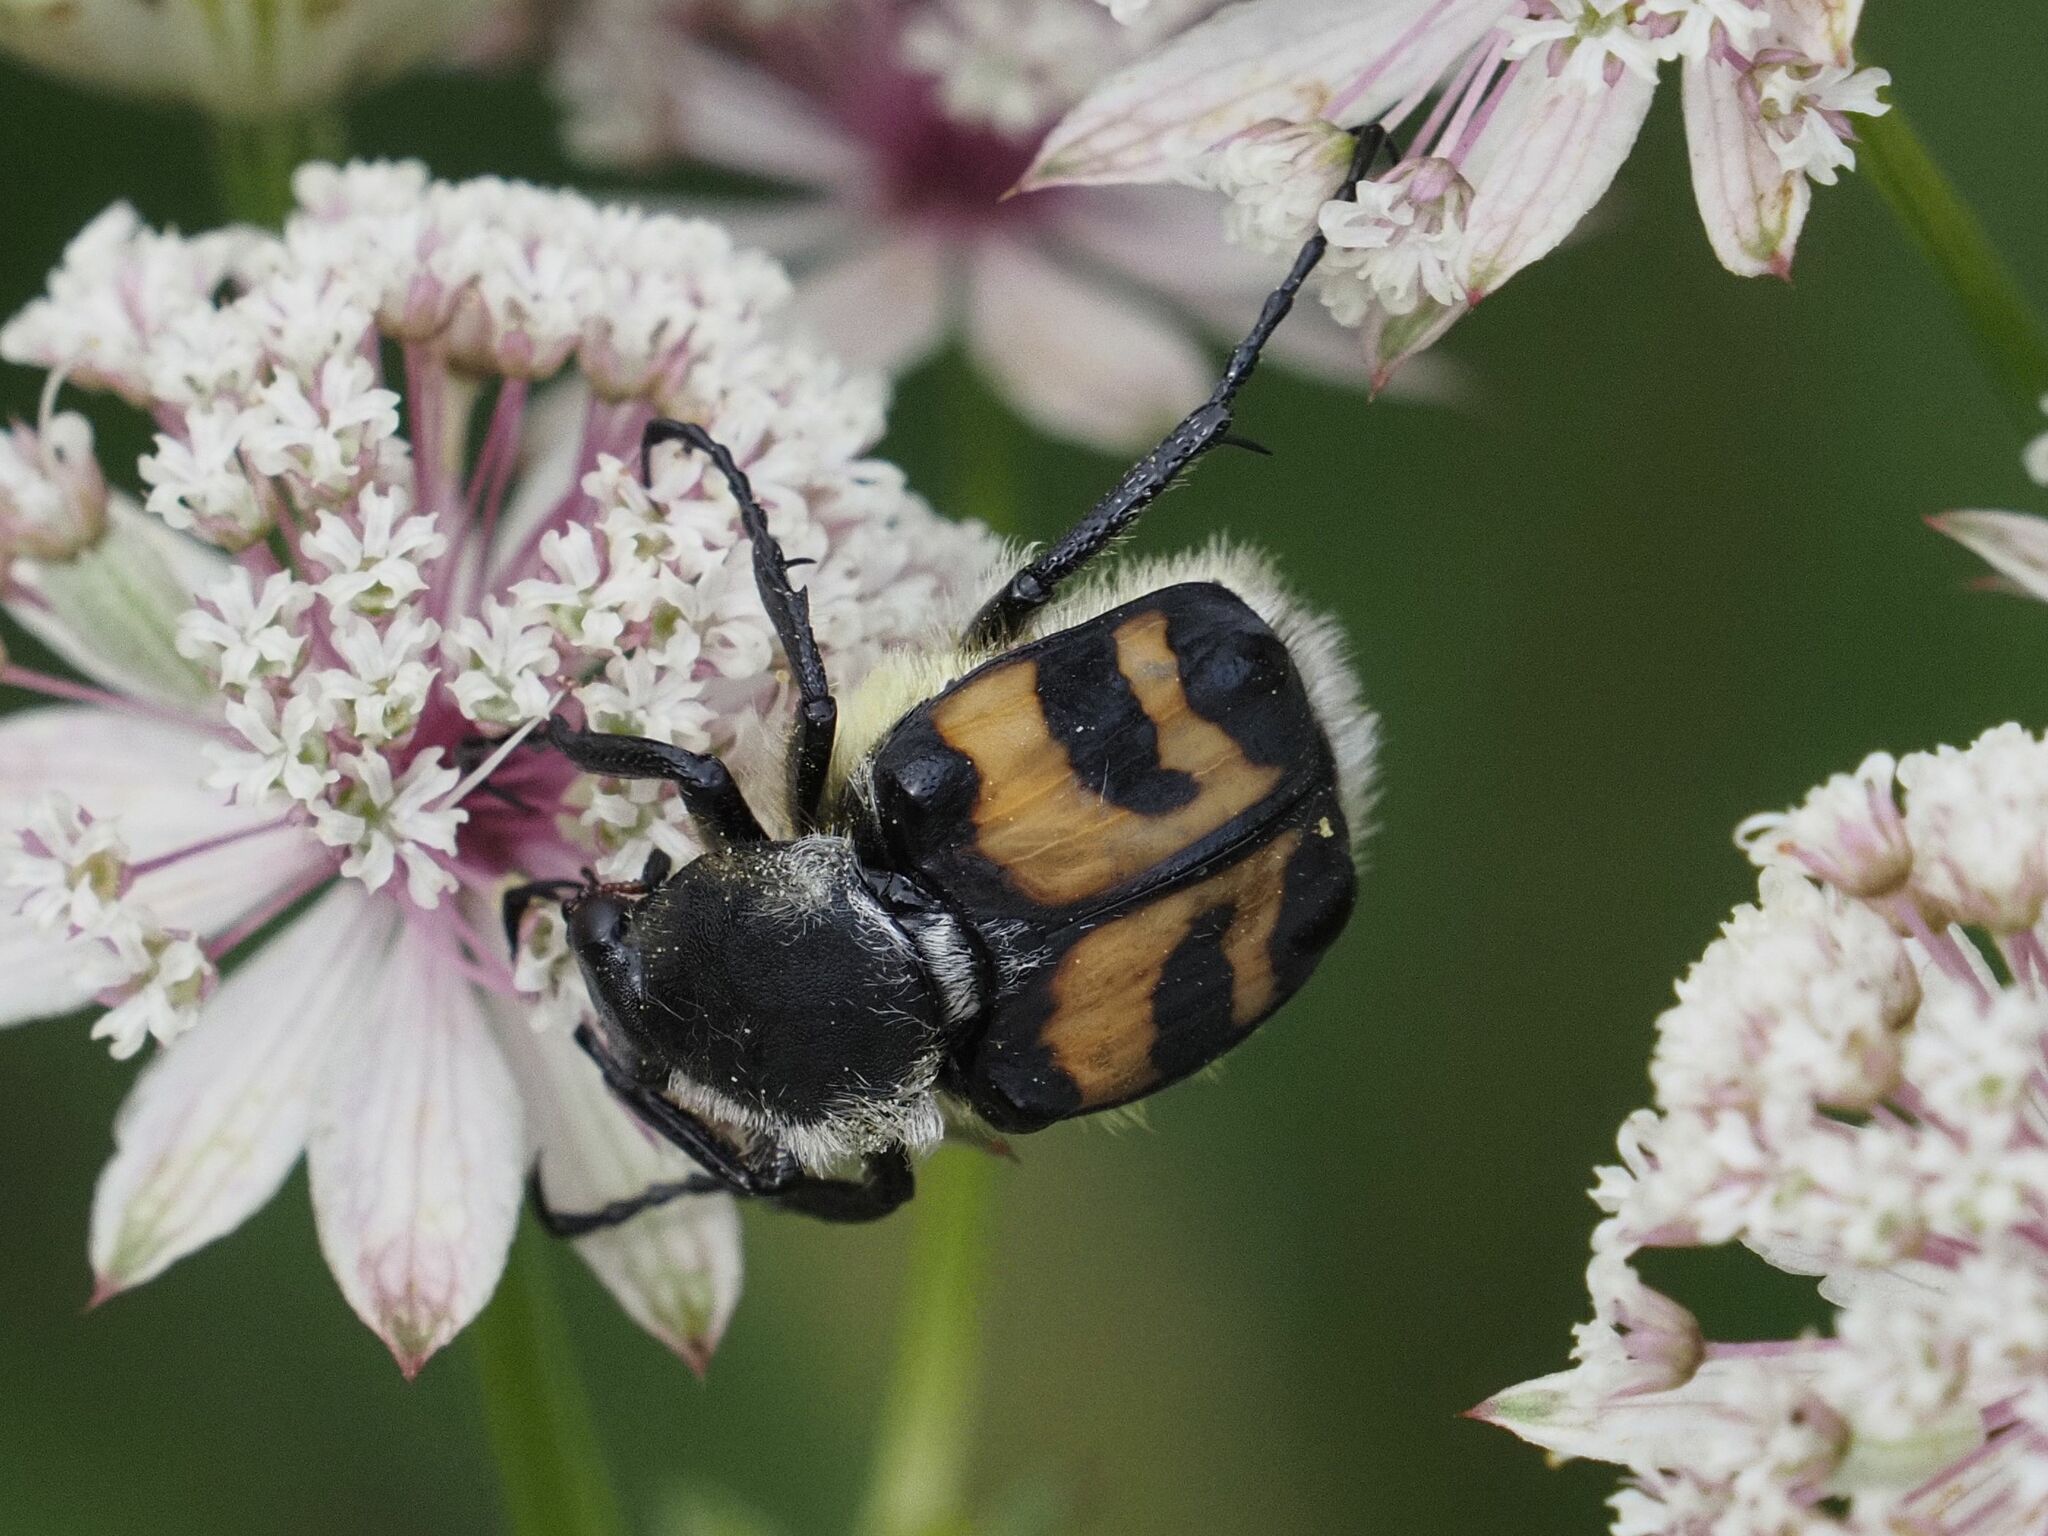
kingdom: Animalia
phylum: Arthropoda
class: Insecta
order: Coleoptera
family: Scarabaeidae
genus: Trichius
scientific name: Trichius fasciatus
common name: Bee beetle
